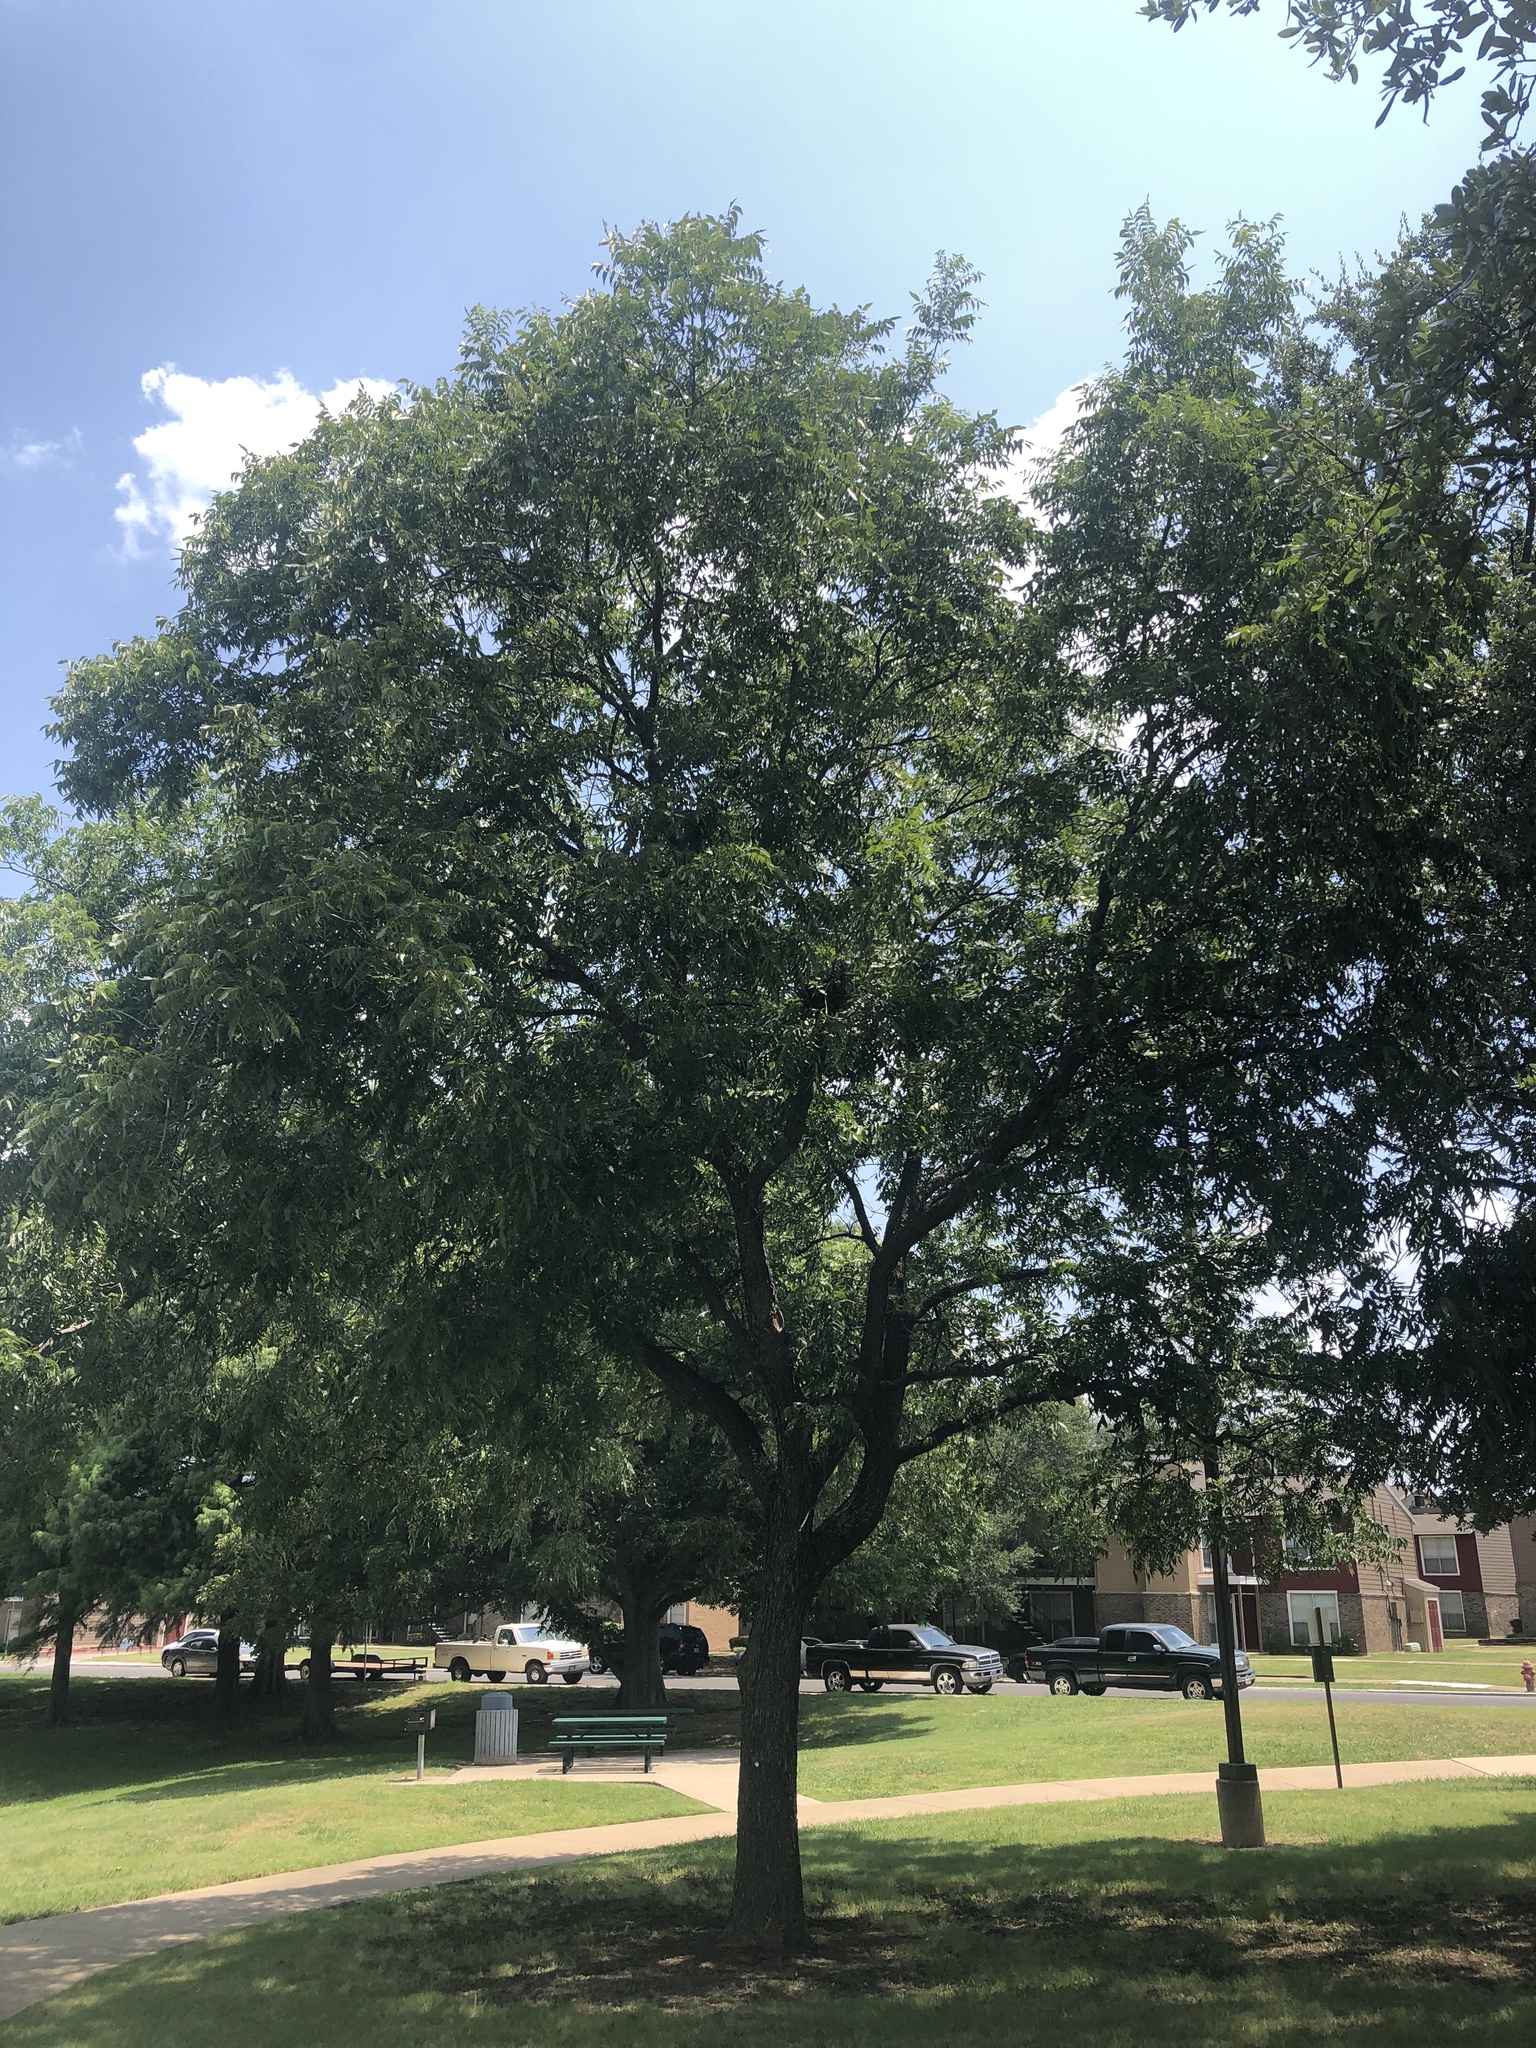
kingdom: Plantae
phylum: Tracheophyta
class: Magnoliopsida
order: Fagales
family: Juglandaceae
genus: Carya
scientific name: Carya illinoinensis
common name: Pecan
